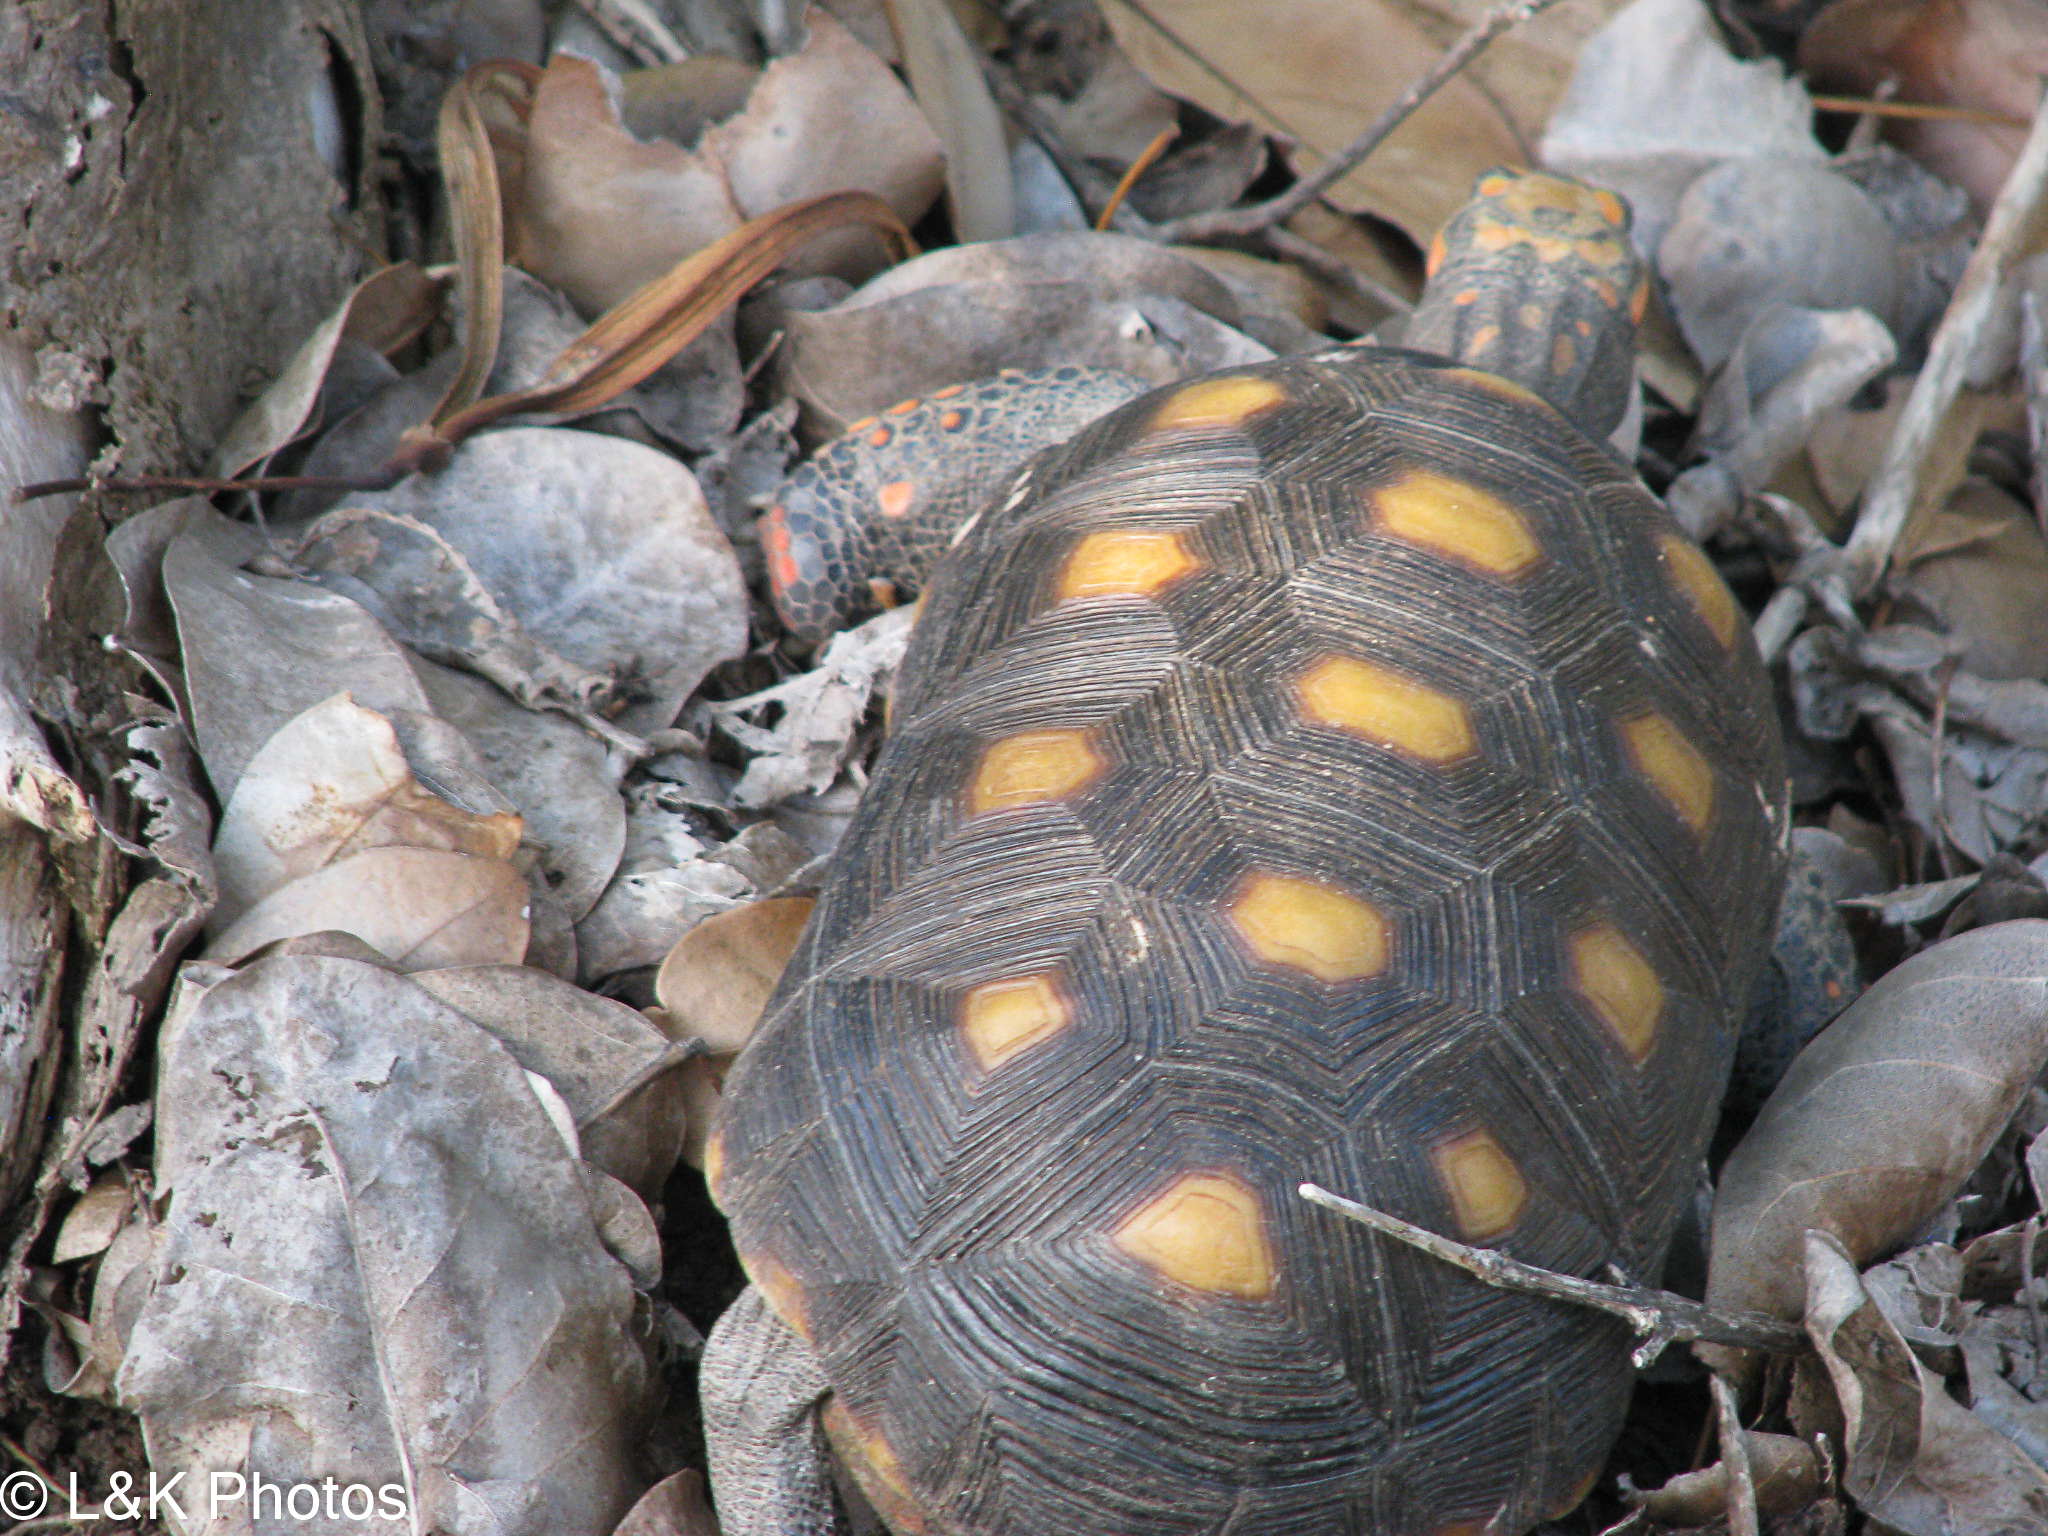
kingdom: Animalia
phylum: Chordata
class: Testudines
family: Testudinidae
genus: Chelonoidis
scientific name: Chelonoidis carbonarius
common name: Red-footed tortoise
